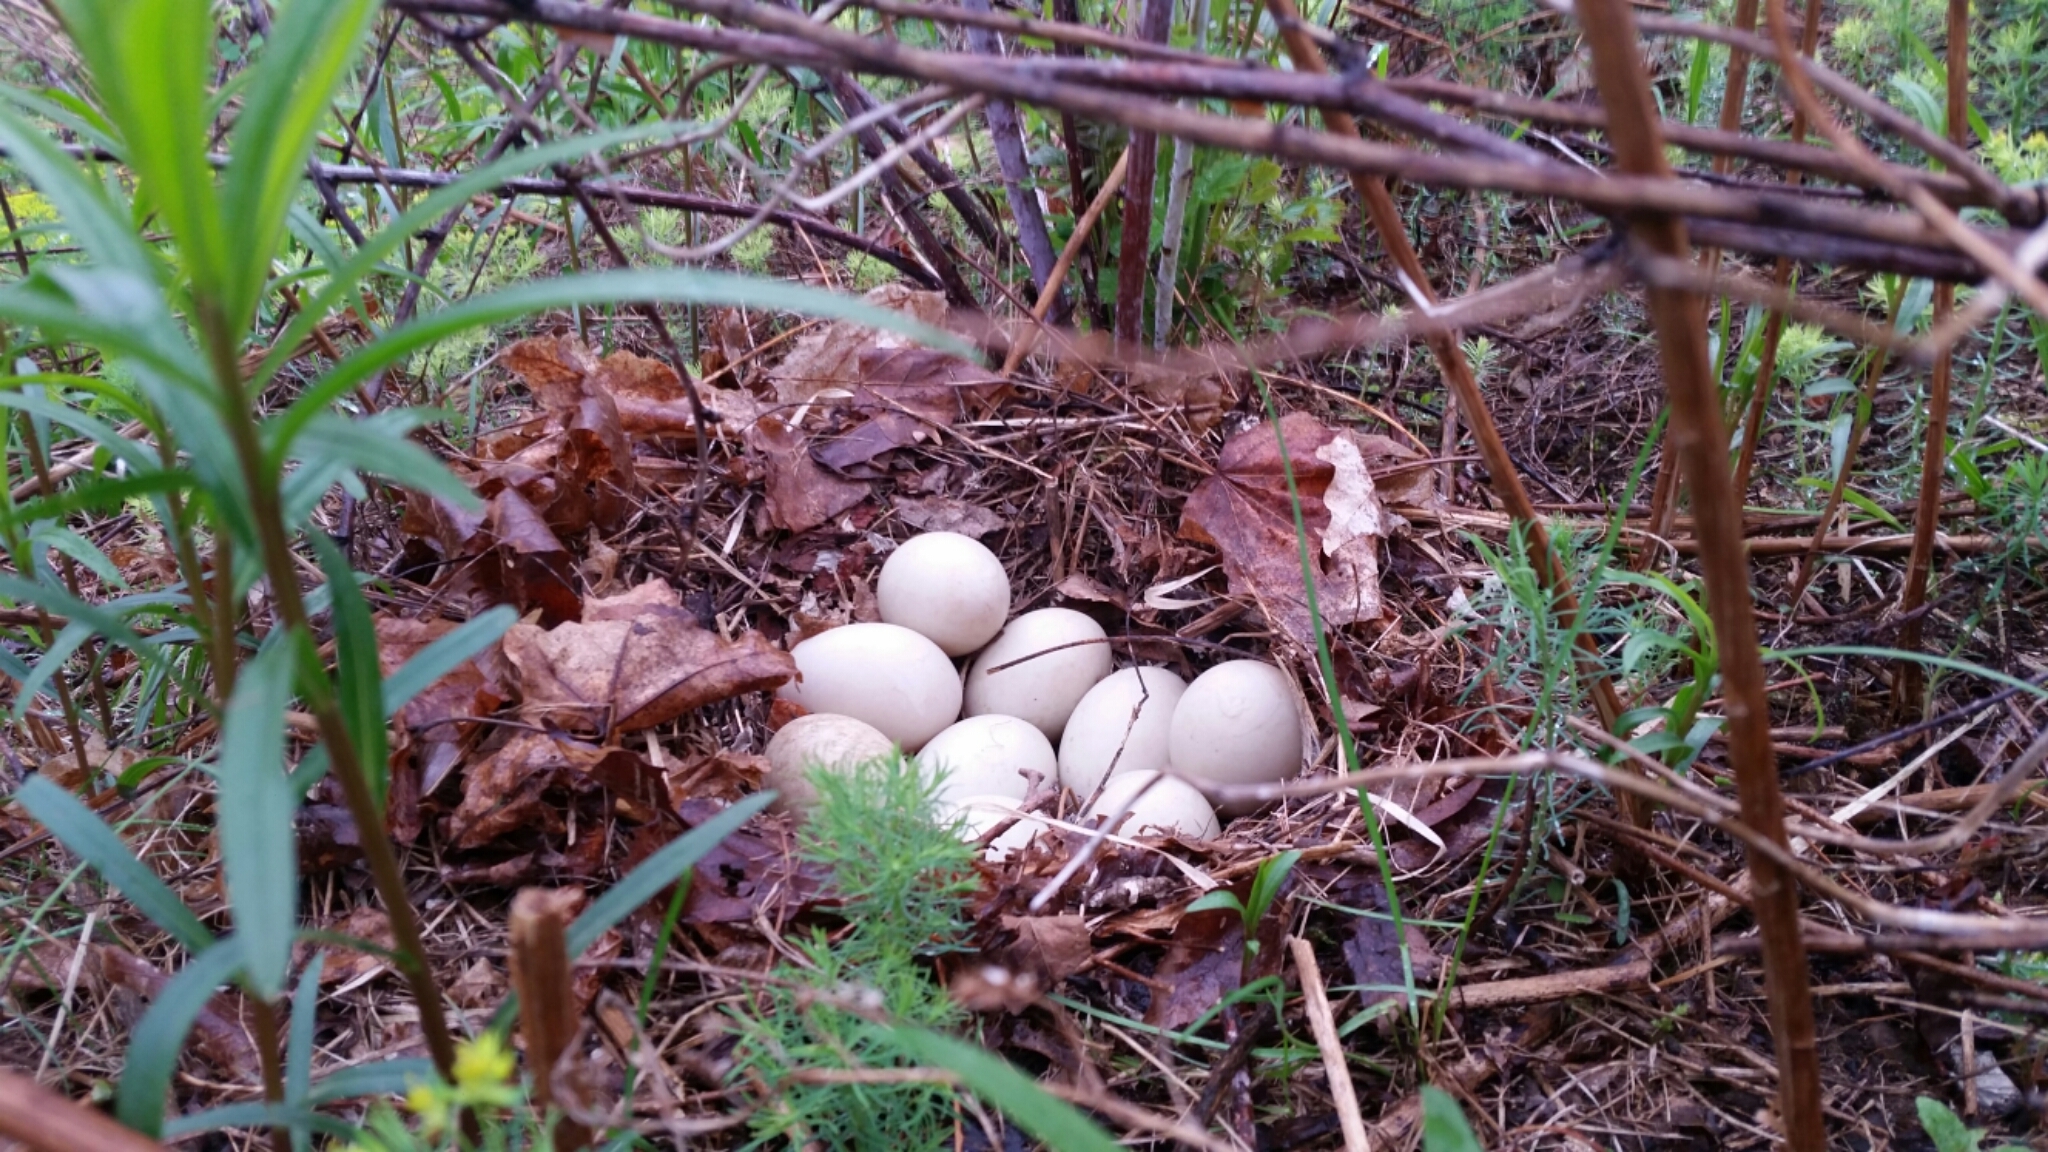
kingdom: Animalia
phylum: Chordata
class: Aves
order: Anseriformes
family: Anatidae
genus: Anas
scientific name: Anas platyrhynchos
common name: Mallard
